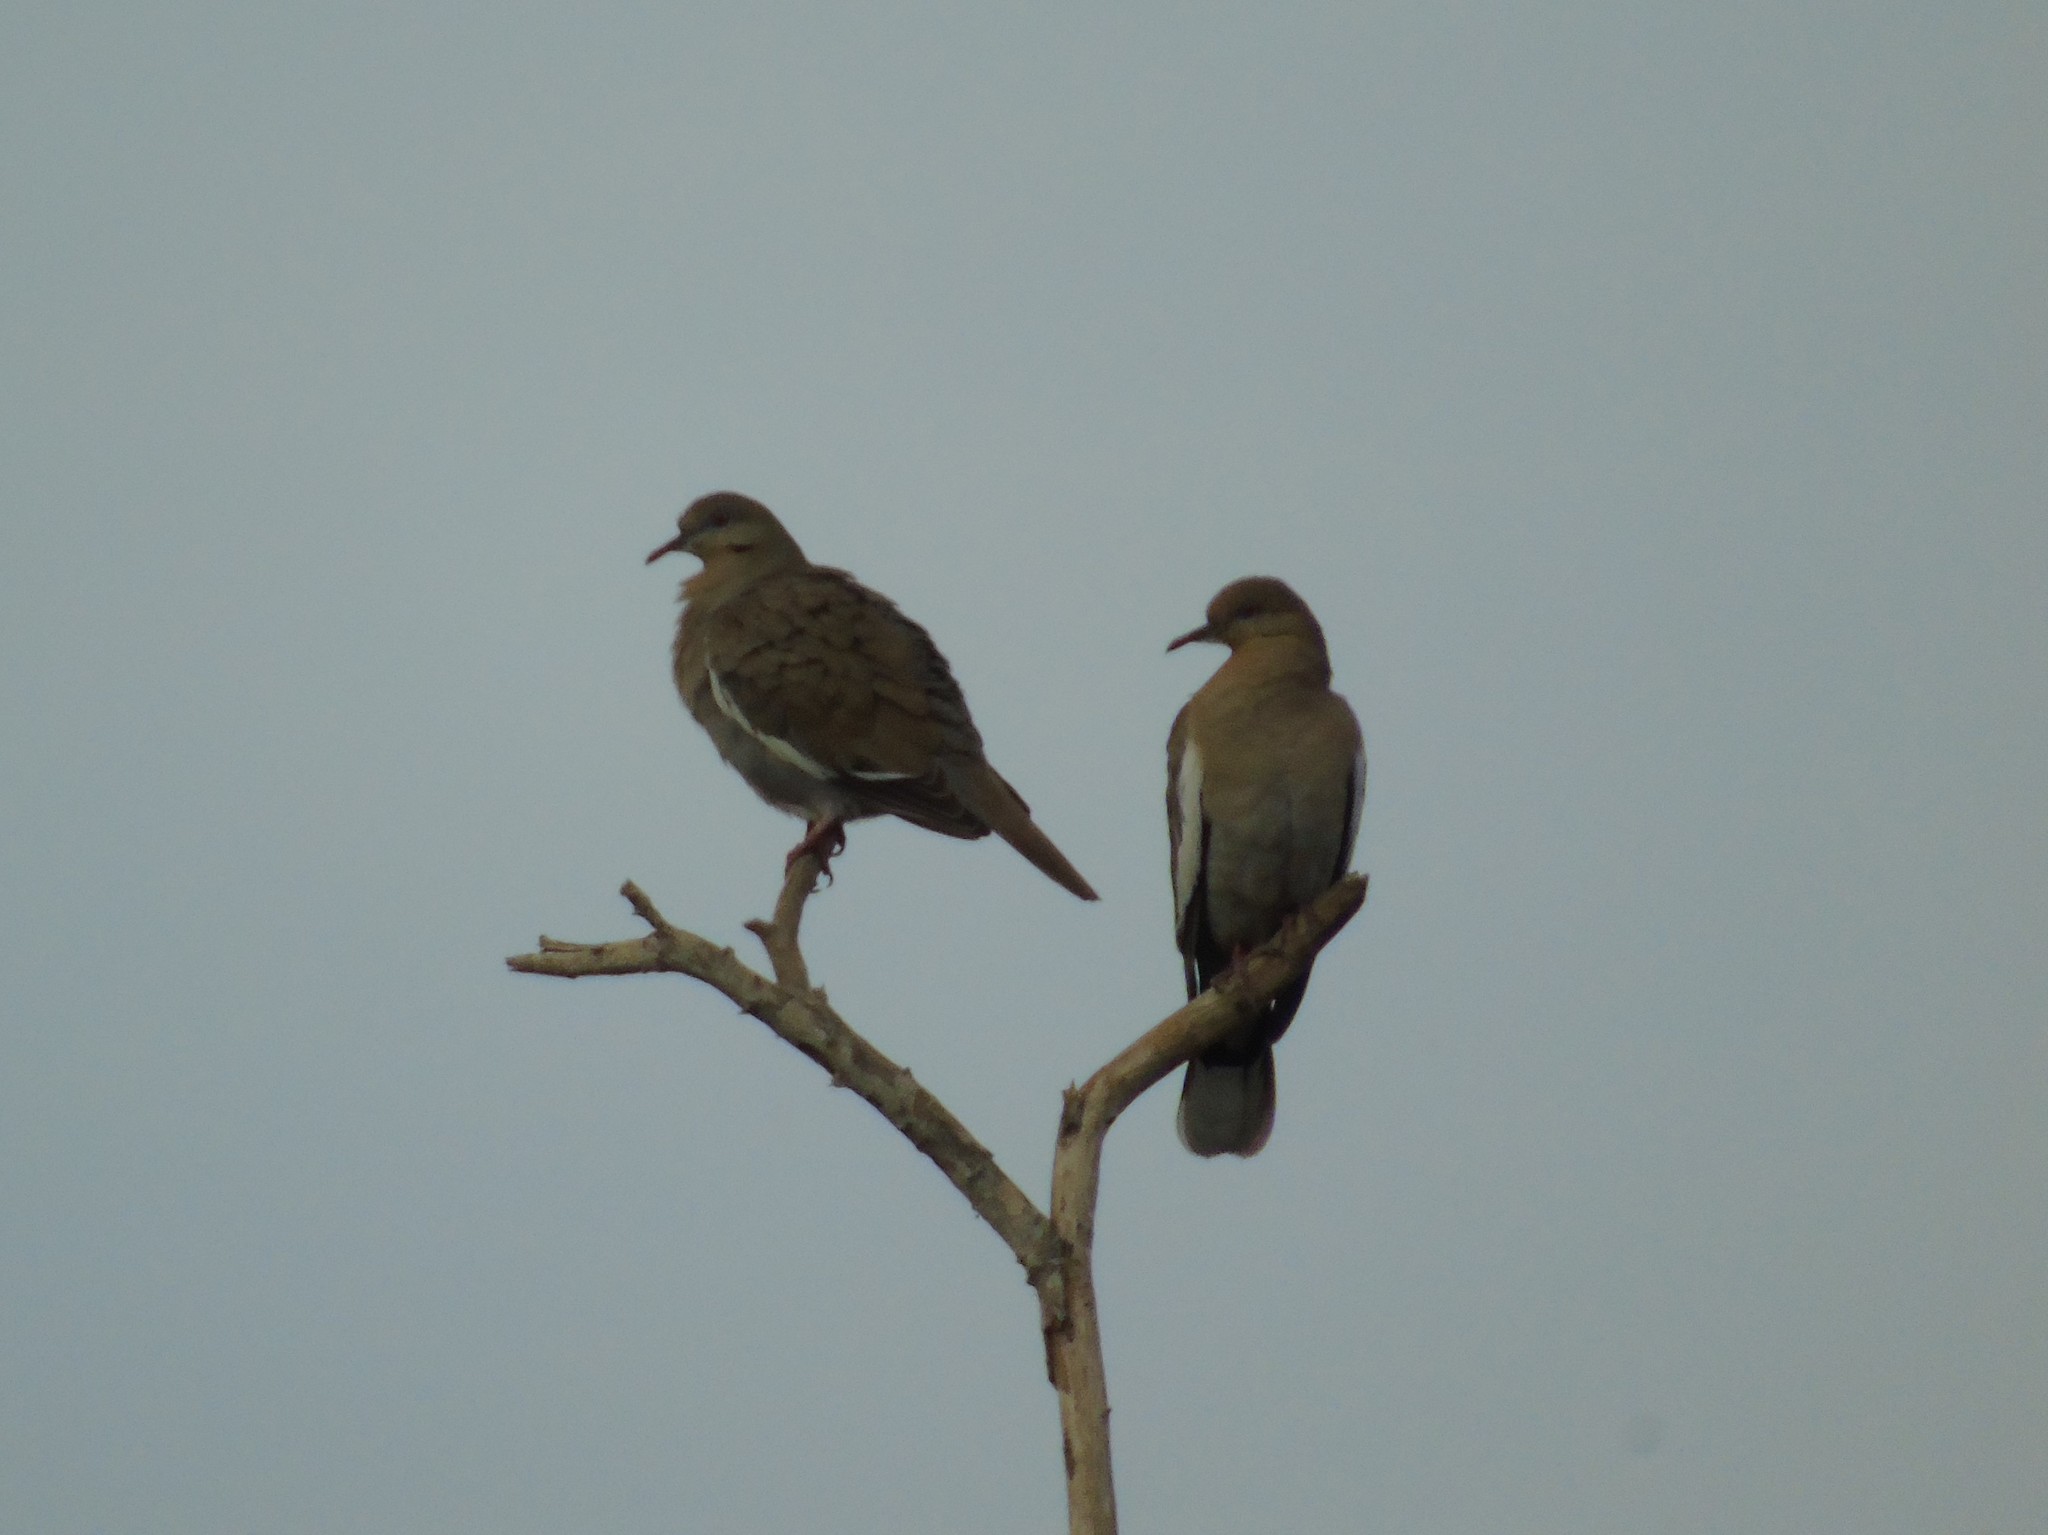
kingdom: Animalia
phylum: Chordata
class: Aves
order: Columbiformes
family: Columbidae
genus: Zenaida
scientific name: Zenaida asiatica
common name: White-winged dove
